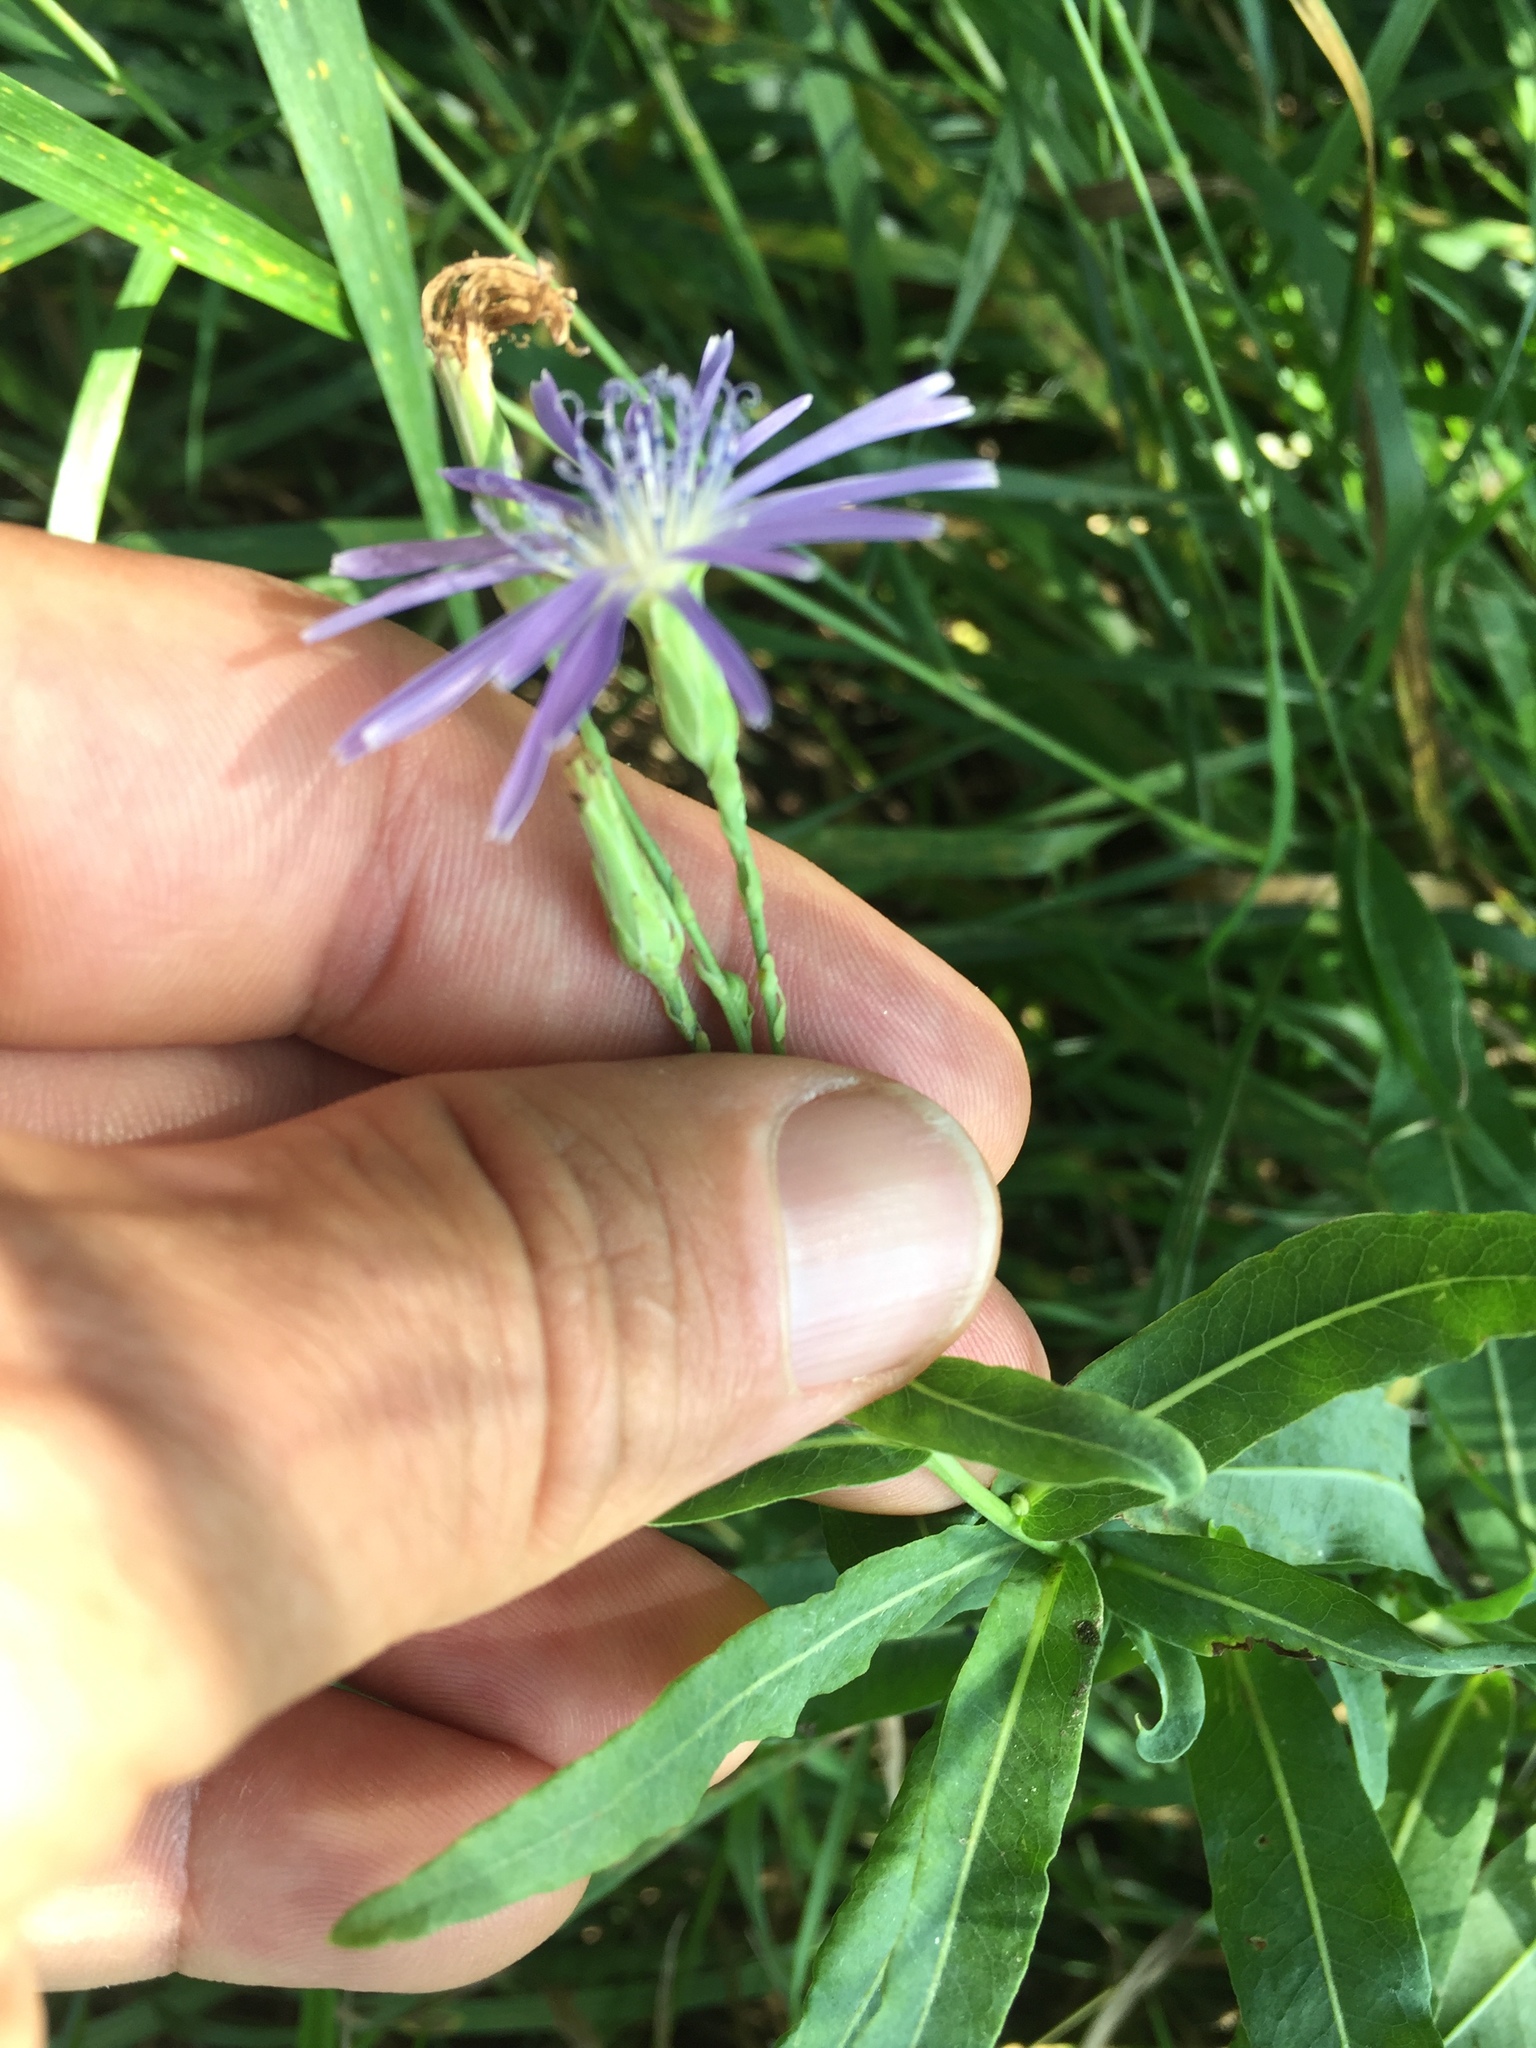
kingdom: Plantae
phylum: Tracheophyta
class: Magnoliopsida
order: Asterales
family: Asteraceae
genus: Lactuca
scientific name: Lactuca tatarica
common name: Blue lettuce
